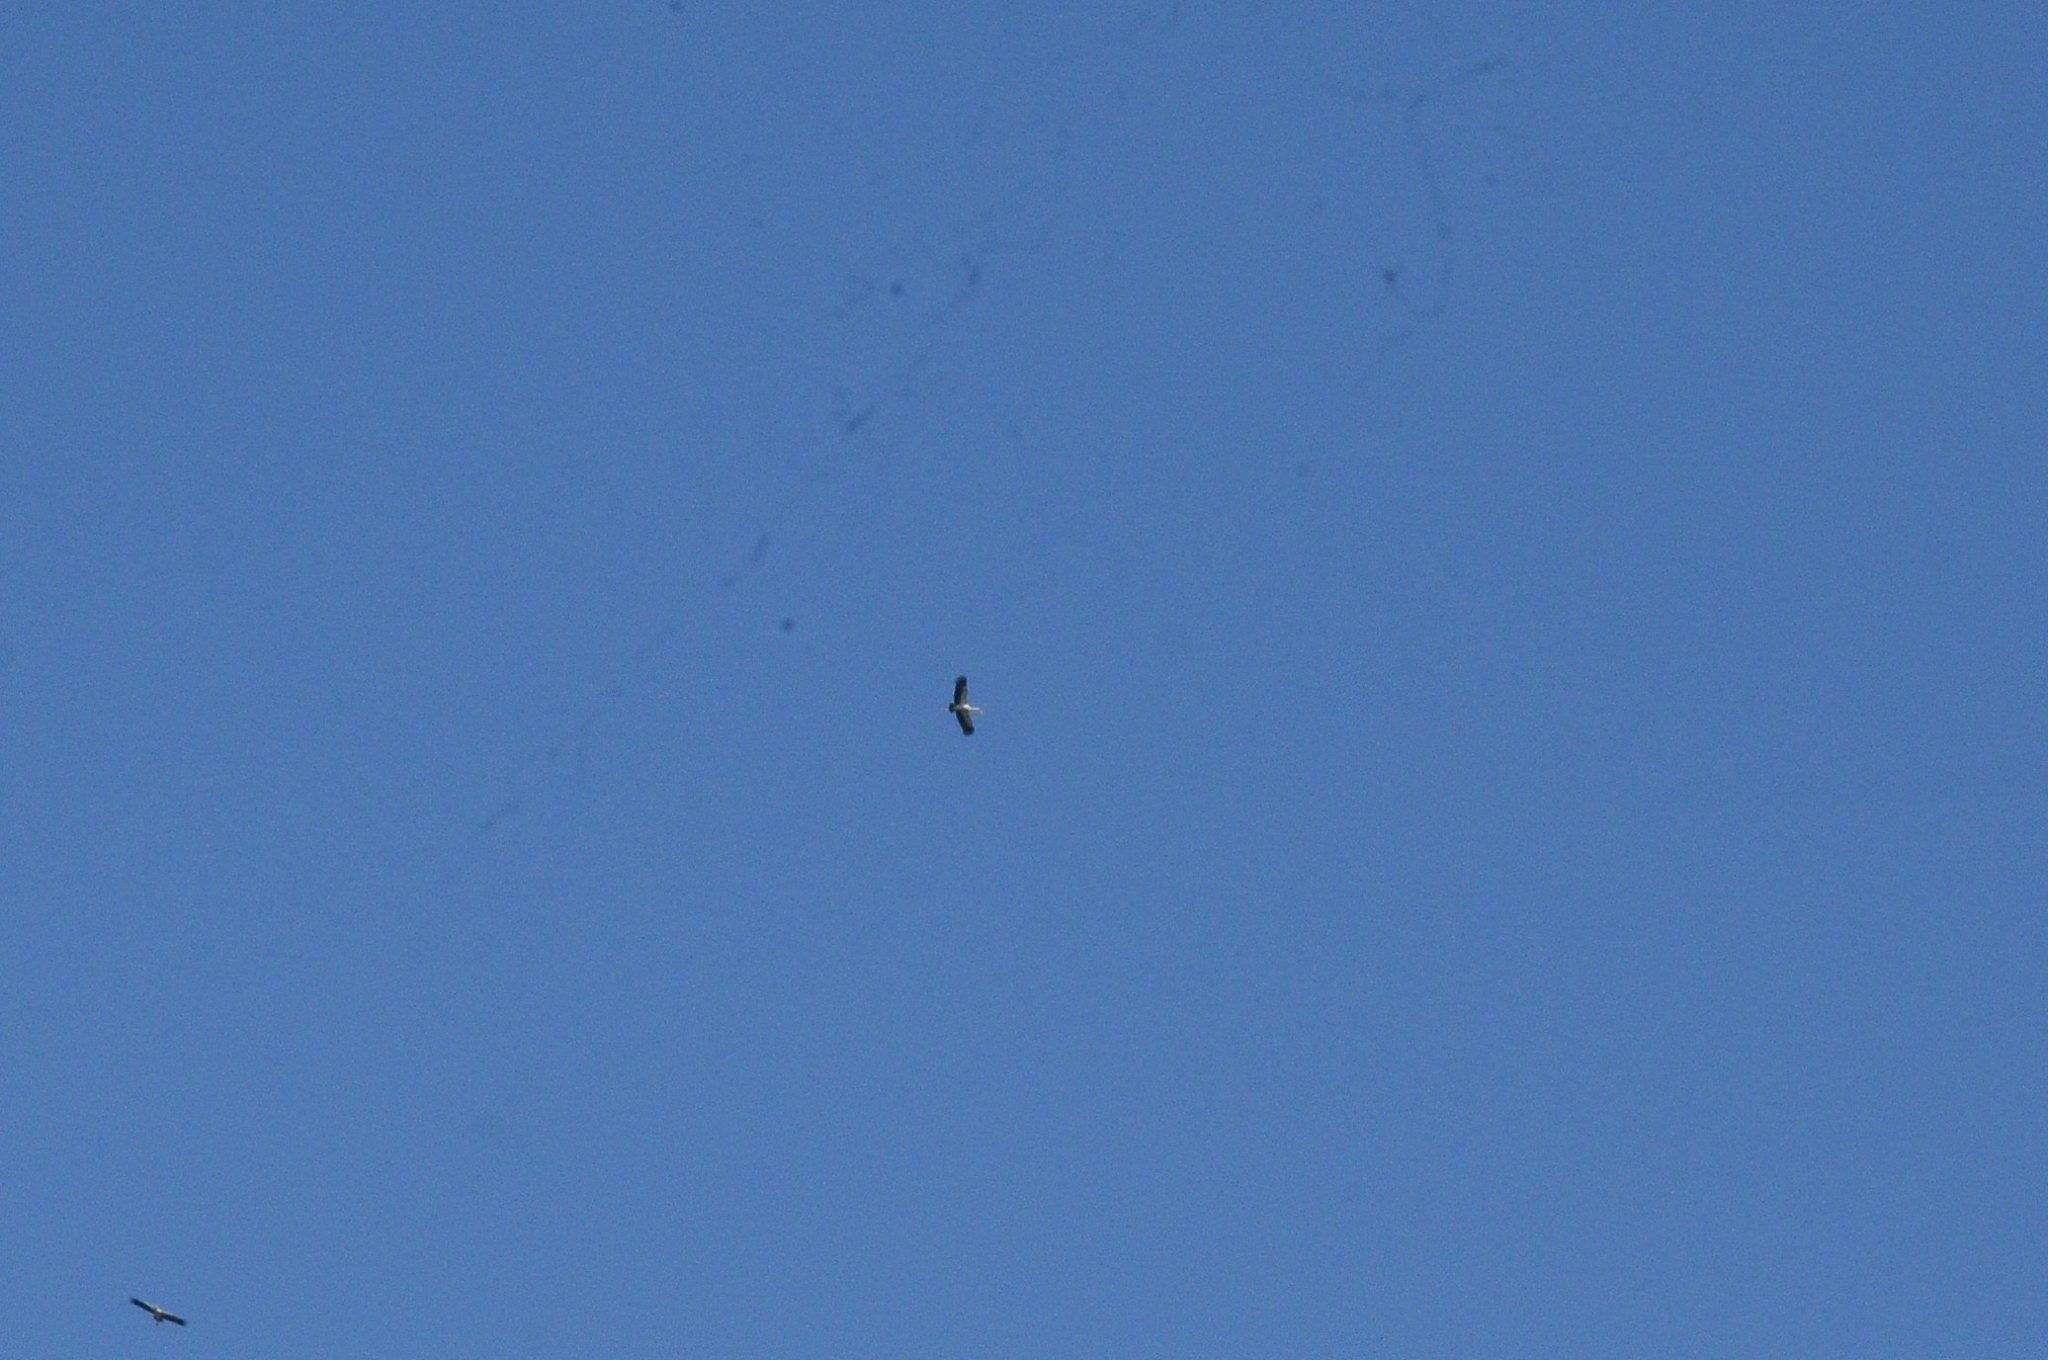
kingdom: Animalia
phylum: Chordata
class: Aves
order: Ciconiiformes
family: Ciconiidae
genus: Anastomus
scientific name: Anastomus oscitans
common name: Asian openbill
